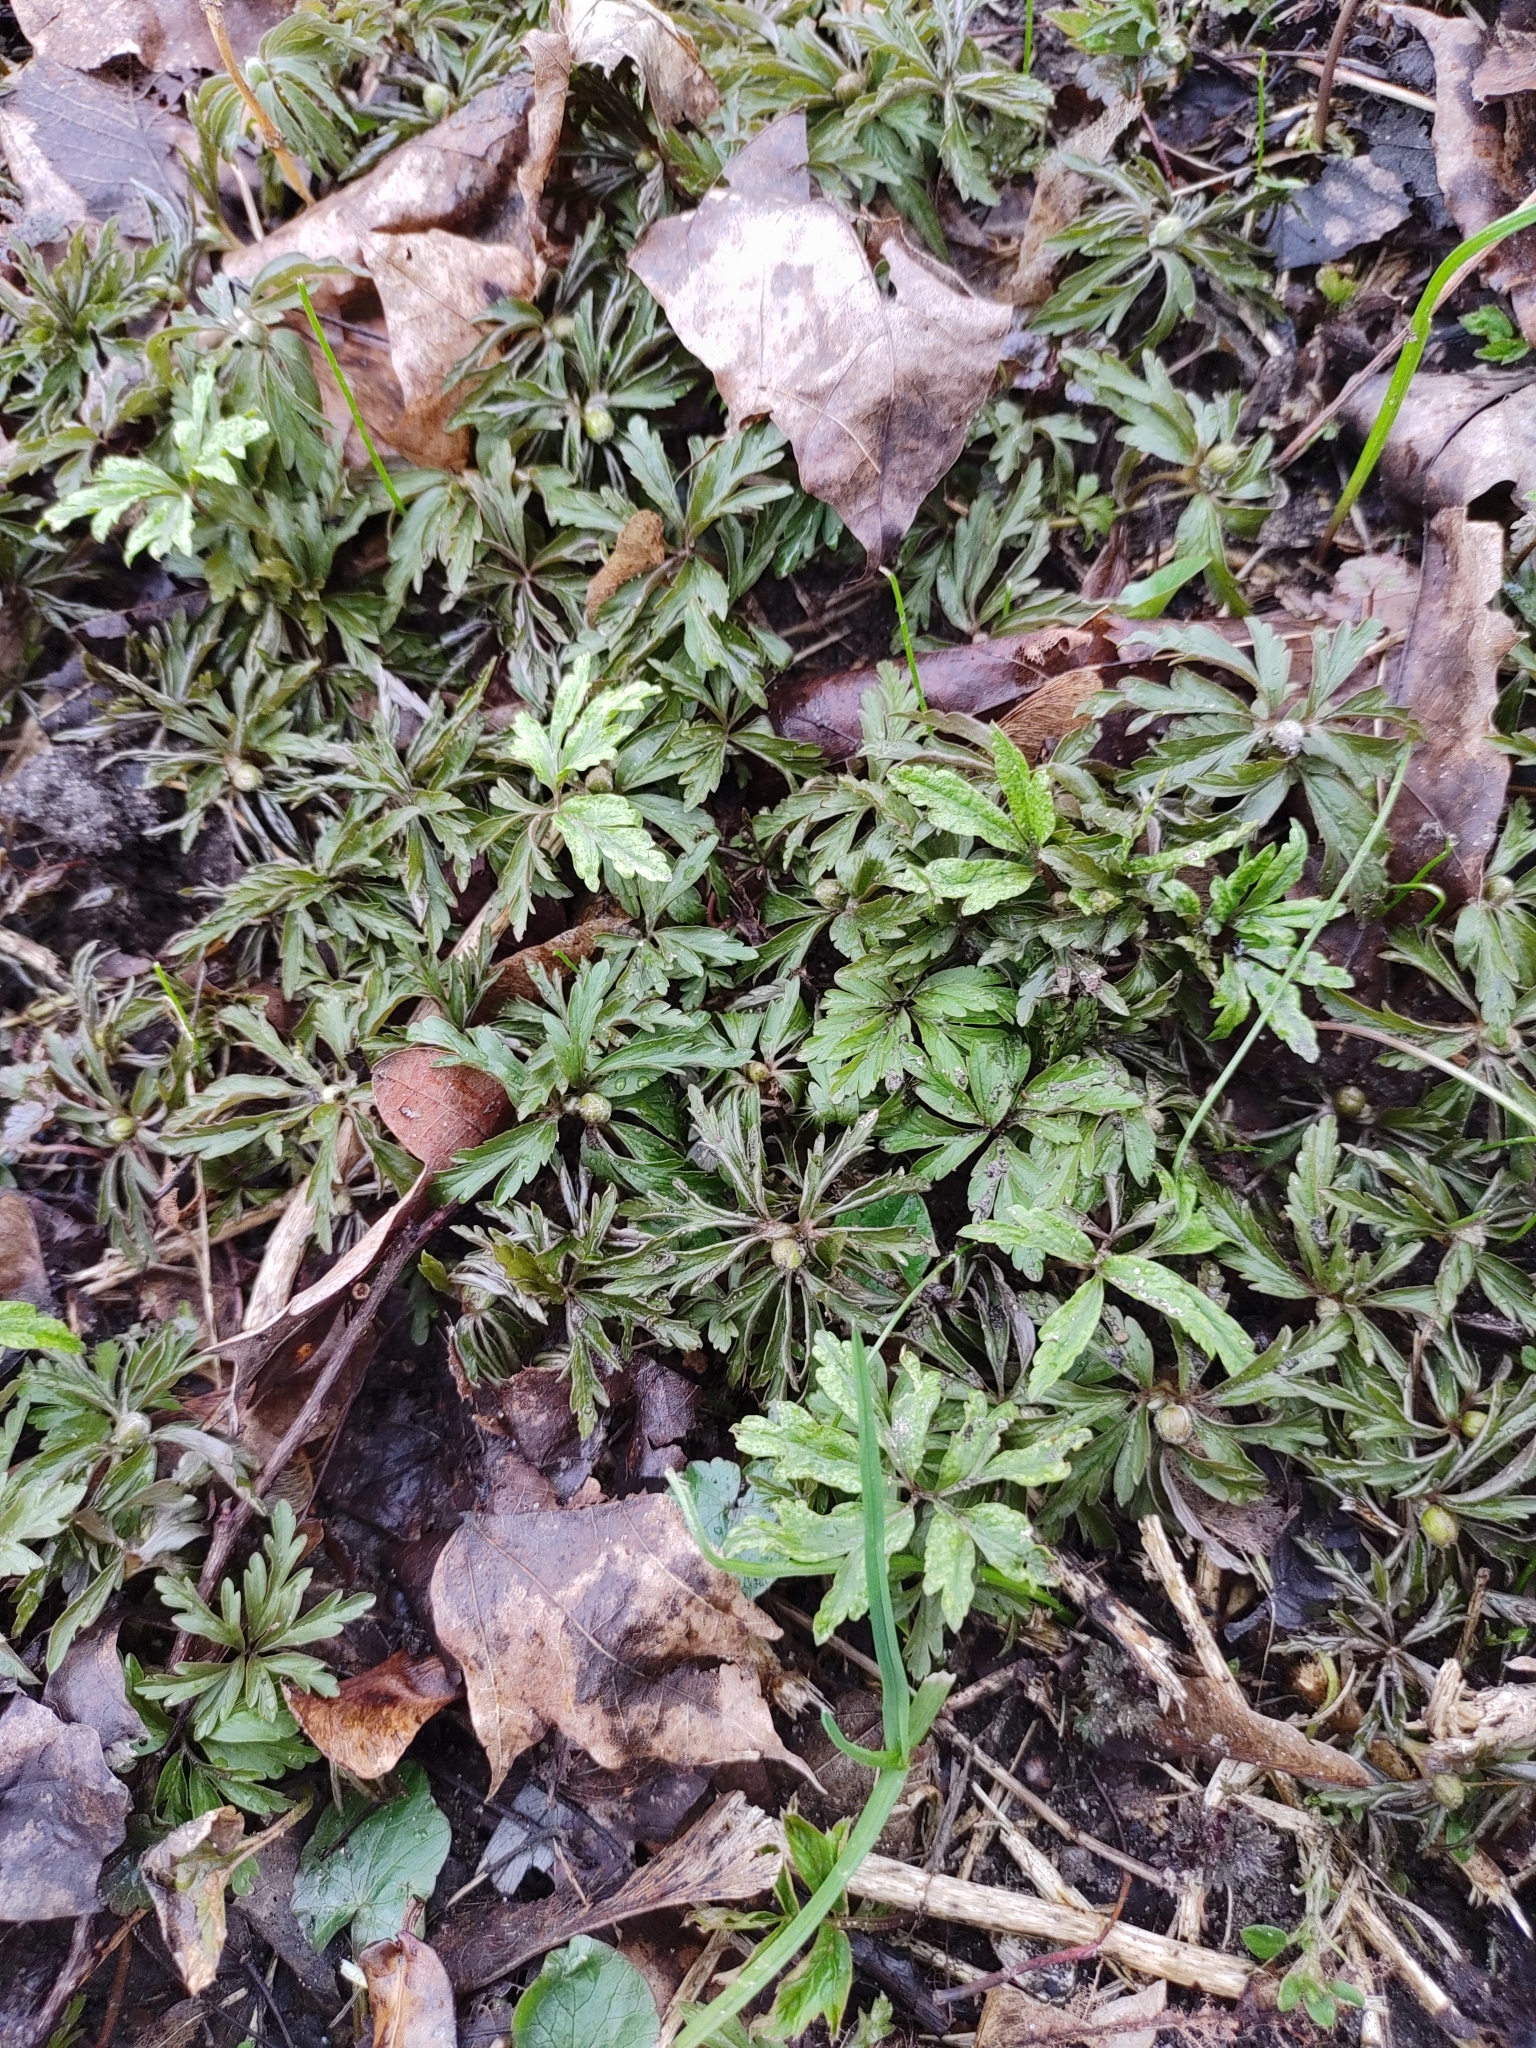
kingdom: Plantae
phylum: Tracheophyta
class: Magnoliopsida
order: Ranunculales
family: Ranunculaceae
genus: Anemone
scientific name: Anemone ranunculoides
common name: Yellow anemone
